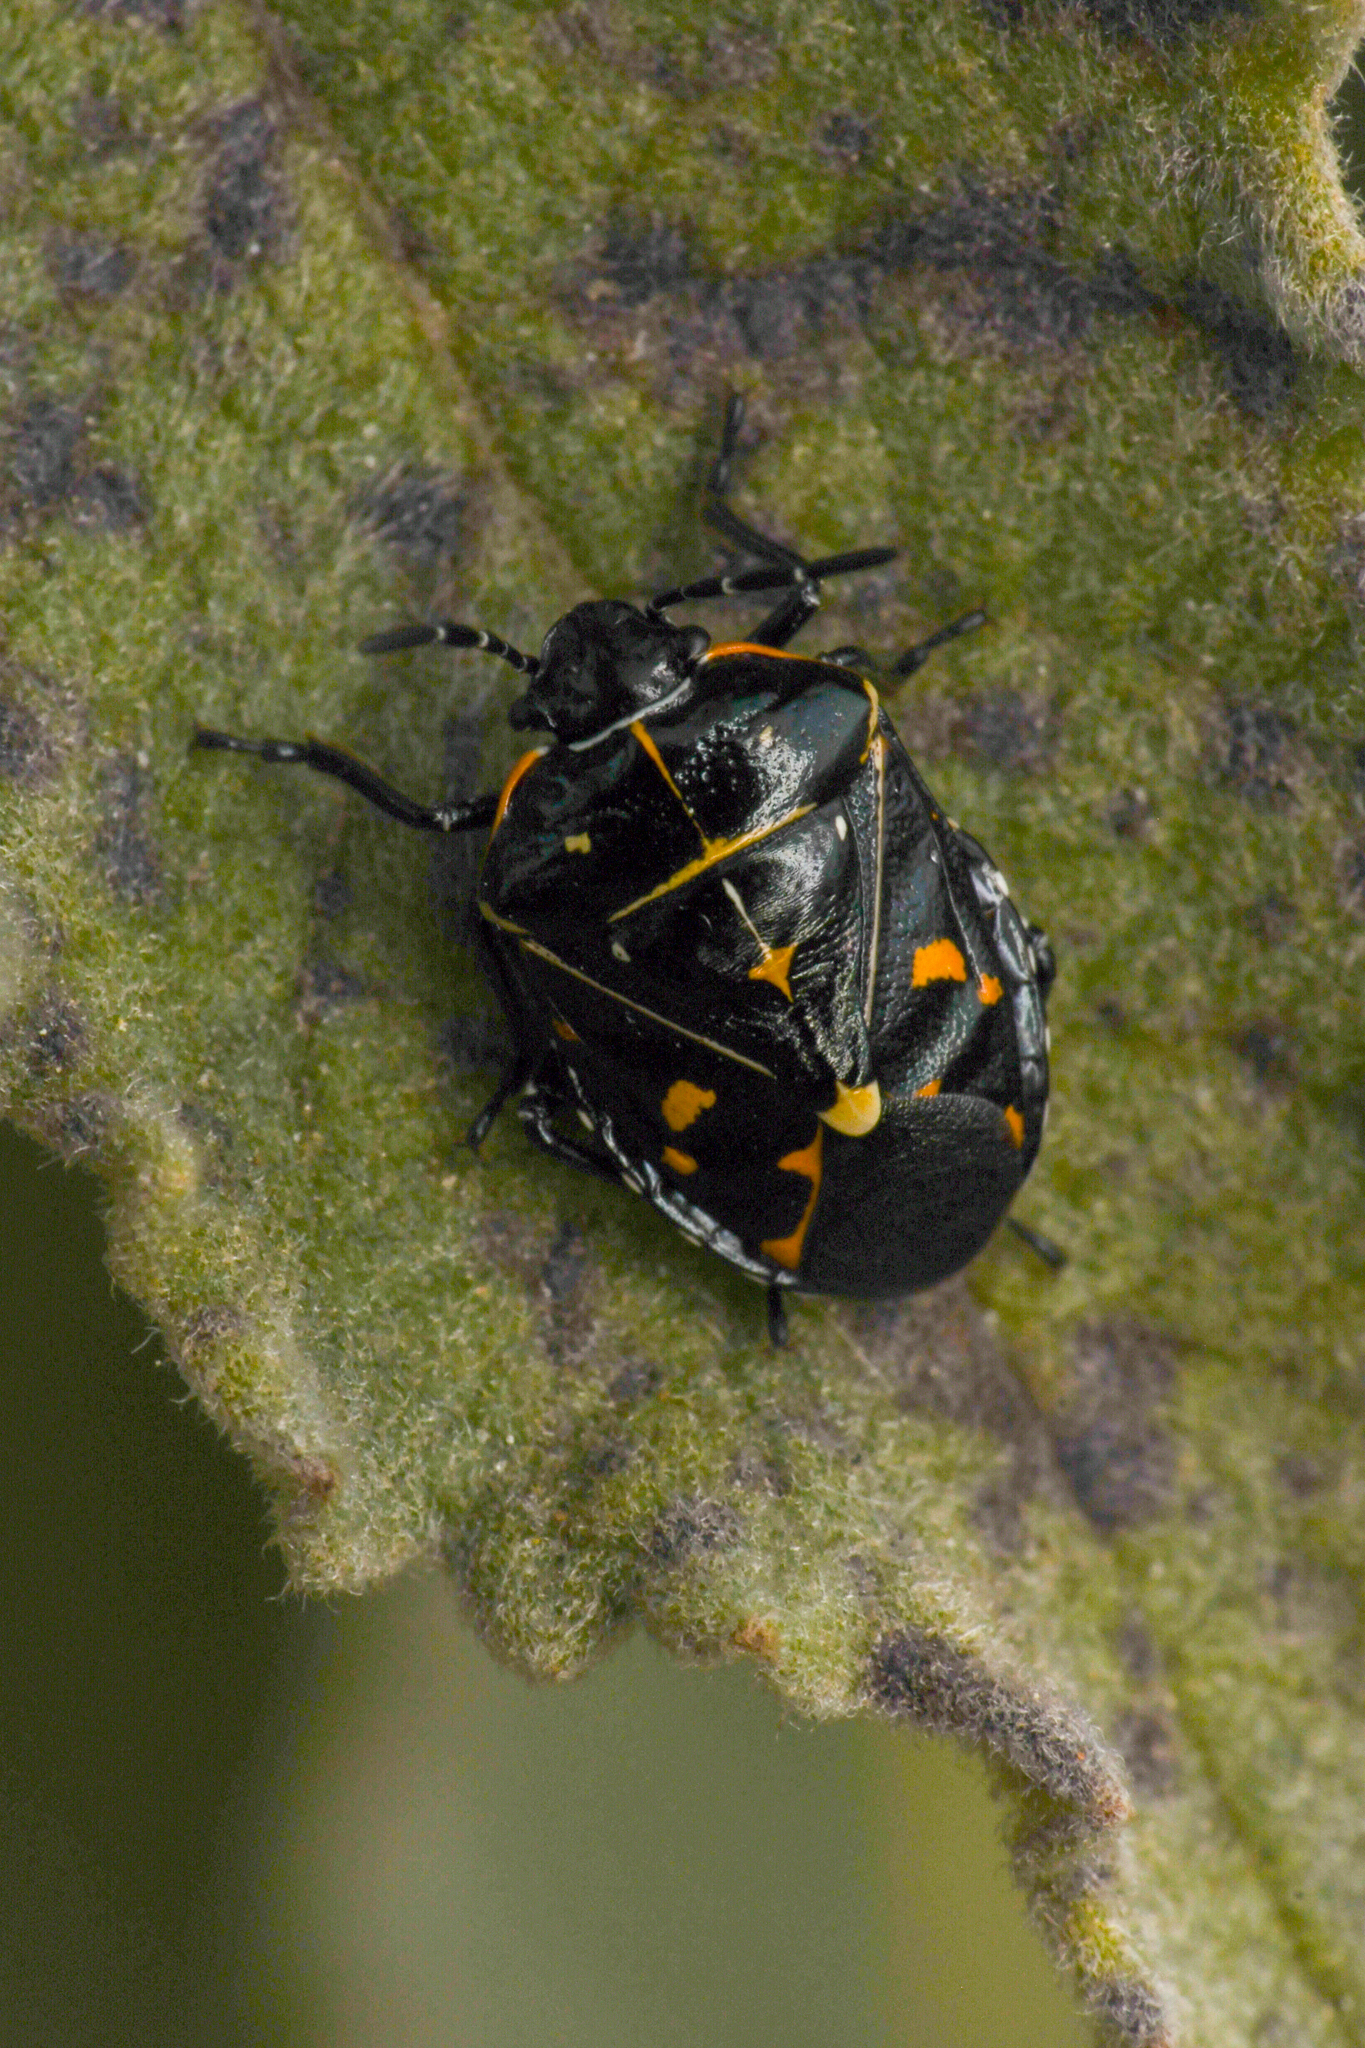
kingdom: Animalia
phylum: Arthropoda
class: Insecta
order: Hemiptera
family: Pentatomidae
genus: Murgantia
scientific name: Murgantia histrionica
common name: Harlequin bug
